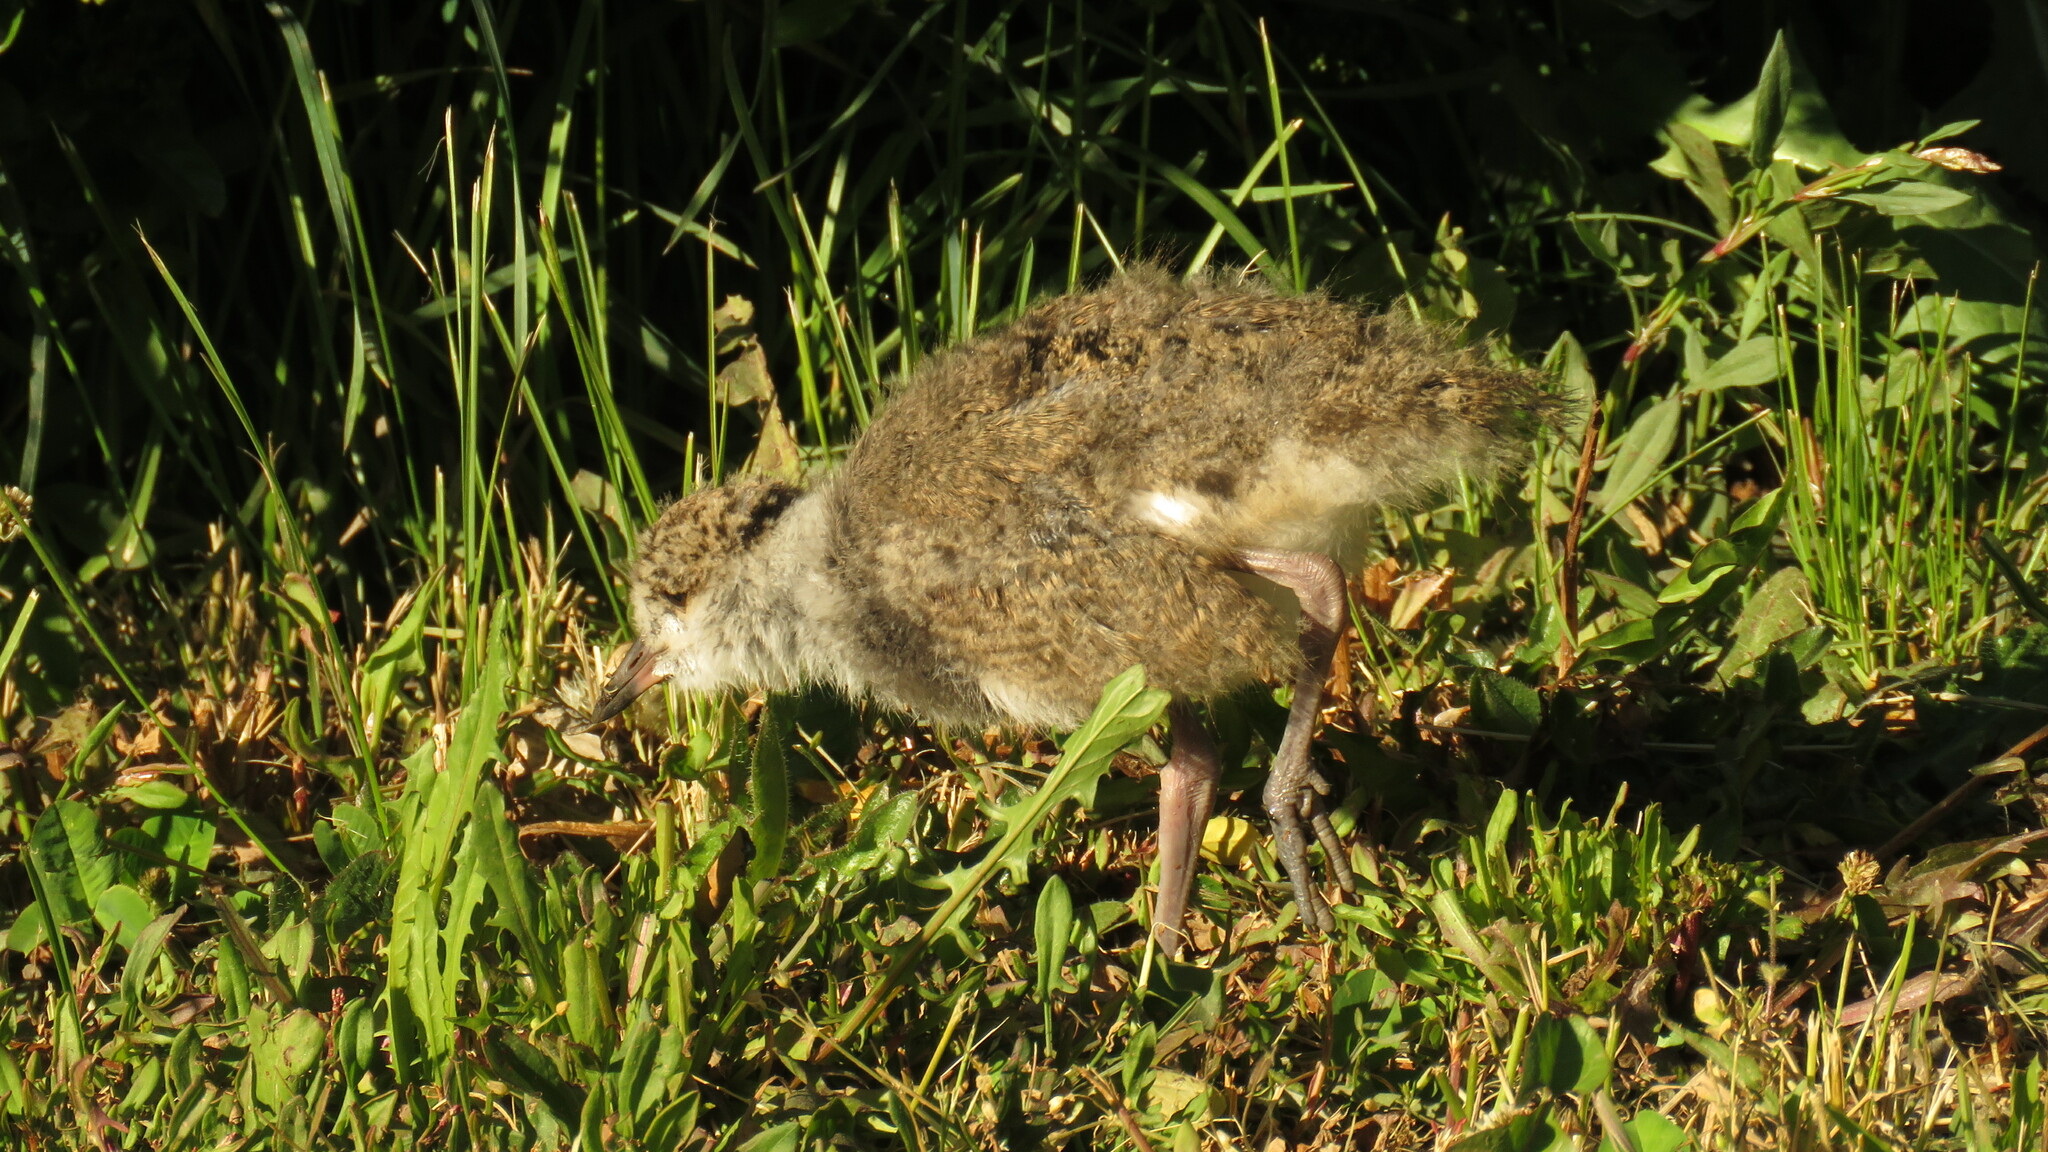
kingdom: Animalia
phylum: Chordata
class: Aves
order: Charadriiformes
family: Charadriidae
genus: Vanellus
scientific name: Vanellus chilensis
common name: Southern lapwing
